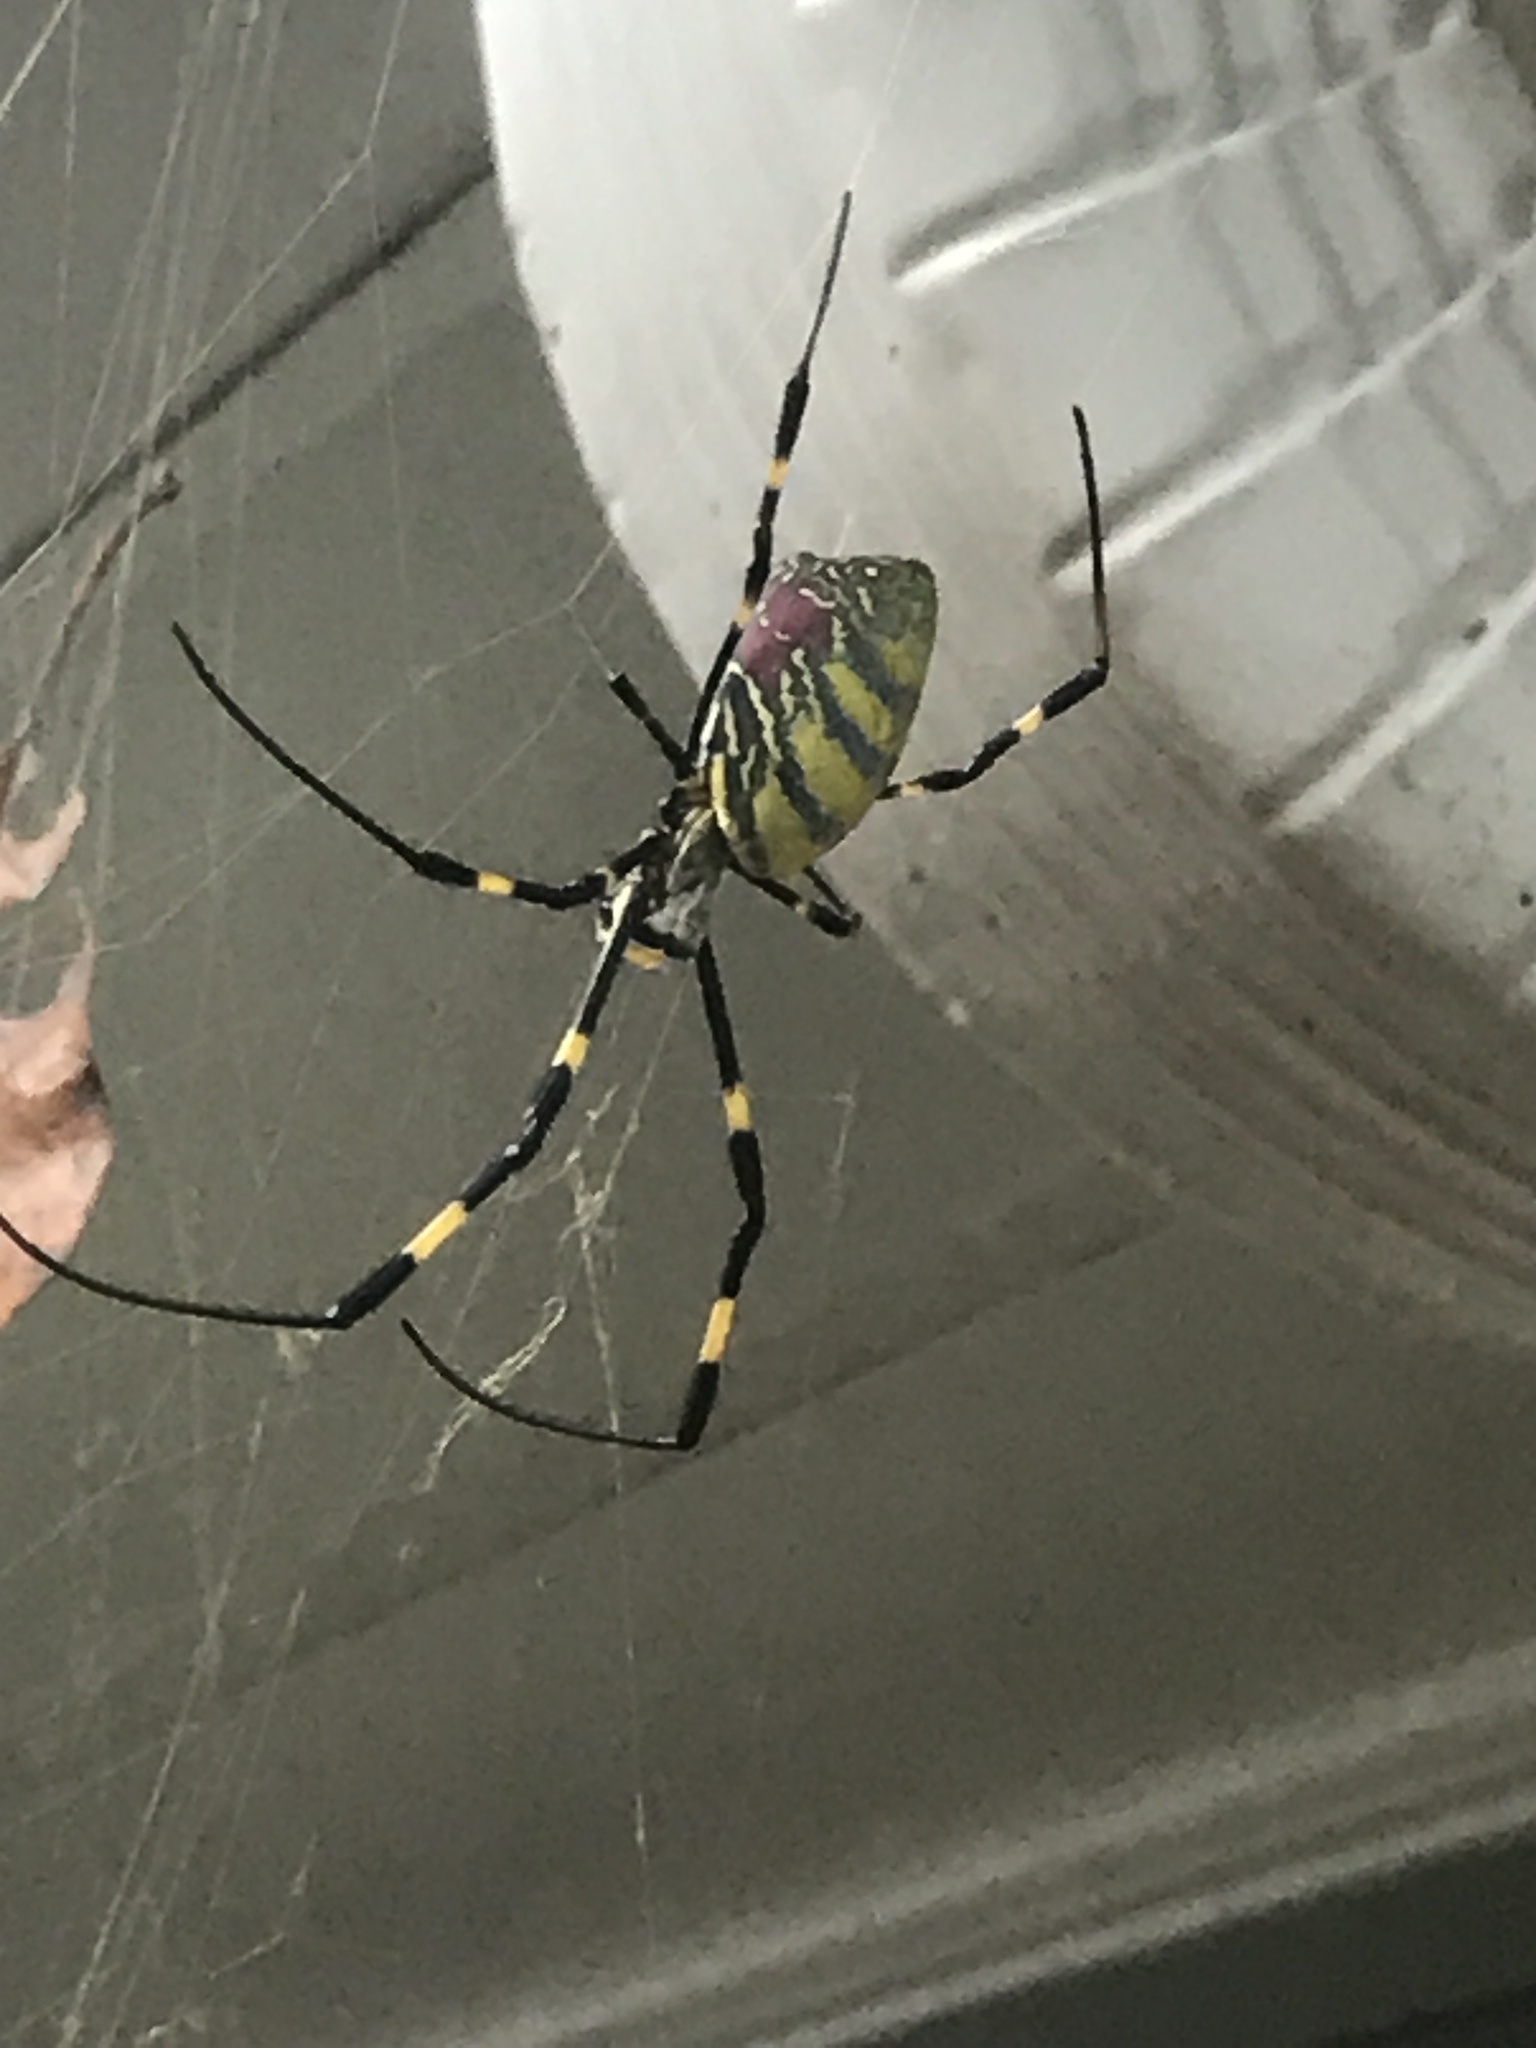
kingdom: Animalia
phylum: Arthropoda
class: Arachnida
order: Araneae
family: Araneidae
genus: Trichonephila
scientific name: Trichonephila clavata
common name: Jorō spider
